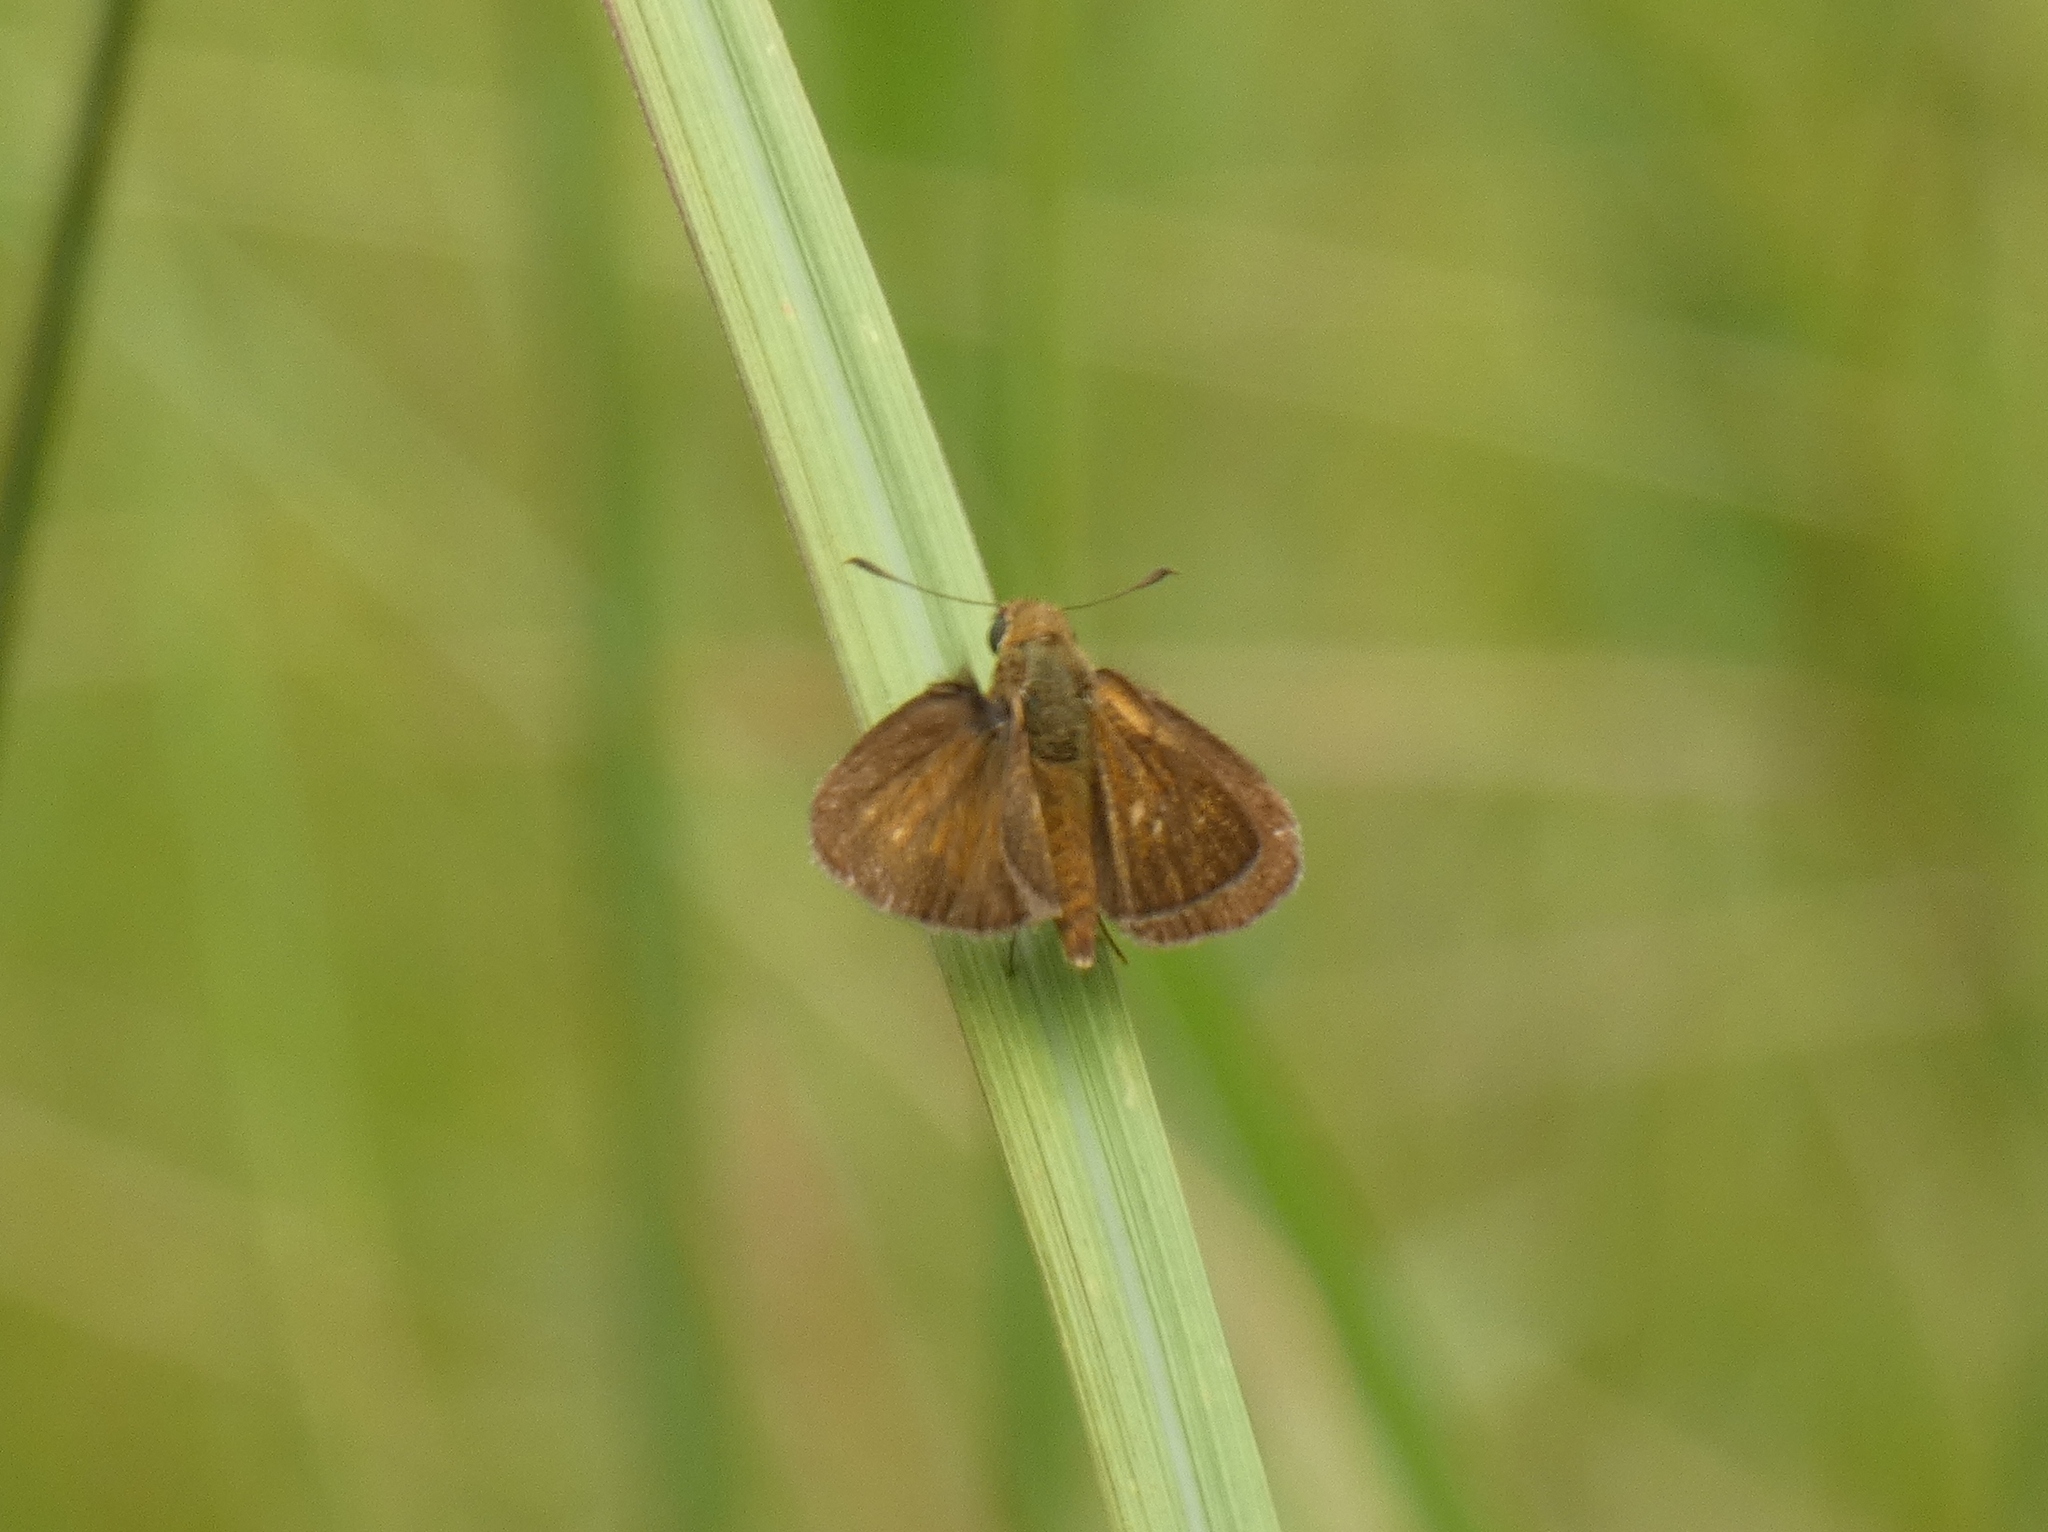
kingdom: Animalia
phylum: Arthropoda
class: Insecta
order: Lepidoptera
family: Hesperiidae
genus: Borbo
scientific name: Borbo micans
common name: Marsh swift
